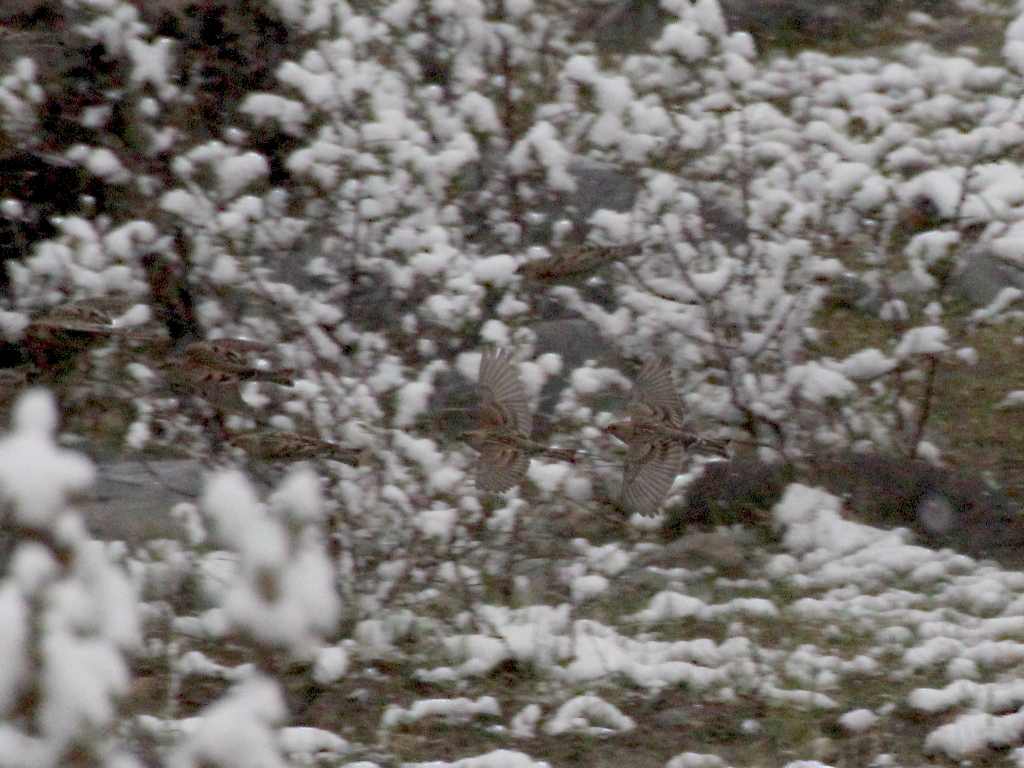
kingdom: Animalia
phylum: Chordata
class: Aves
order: Passeriformes
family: Fringillidae
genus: Leucosticte
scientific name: Leucosticte nemoricola
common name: Plain mountain finch
